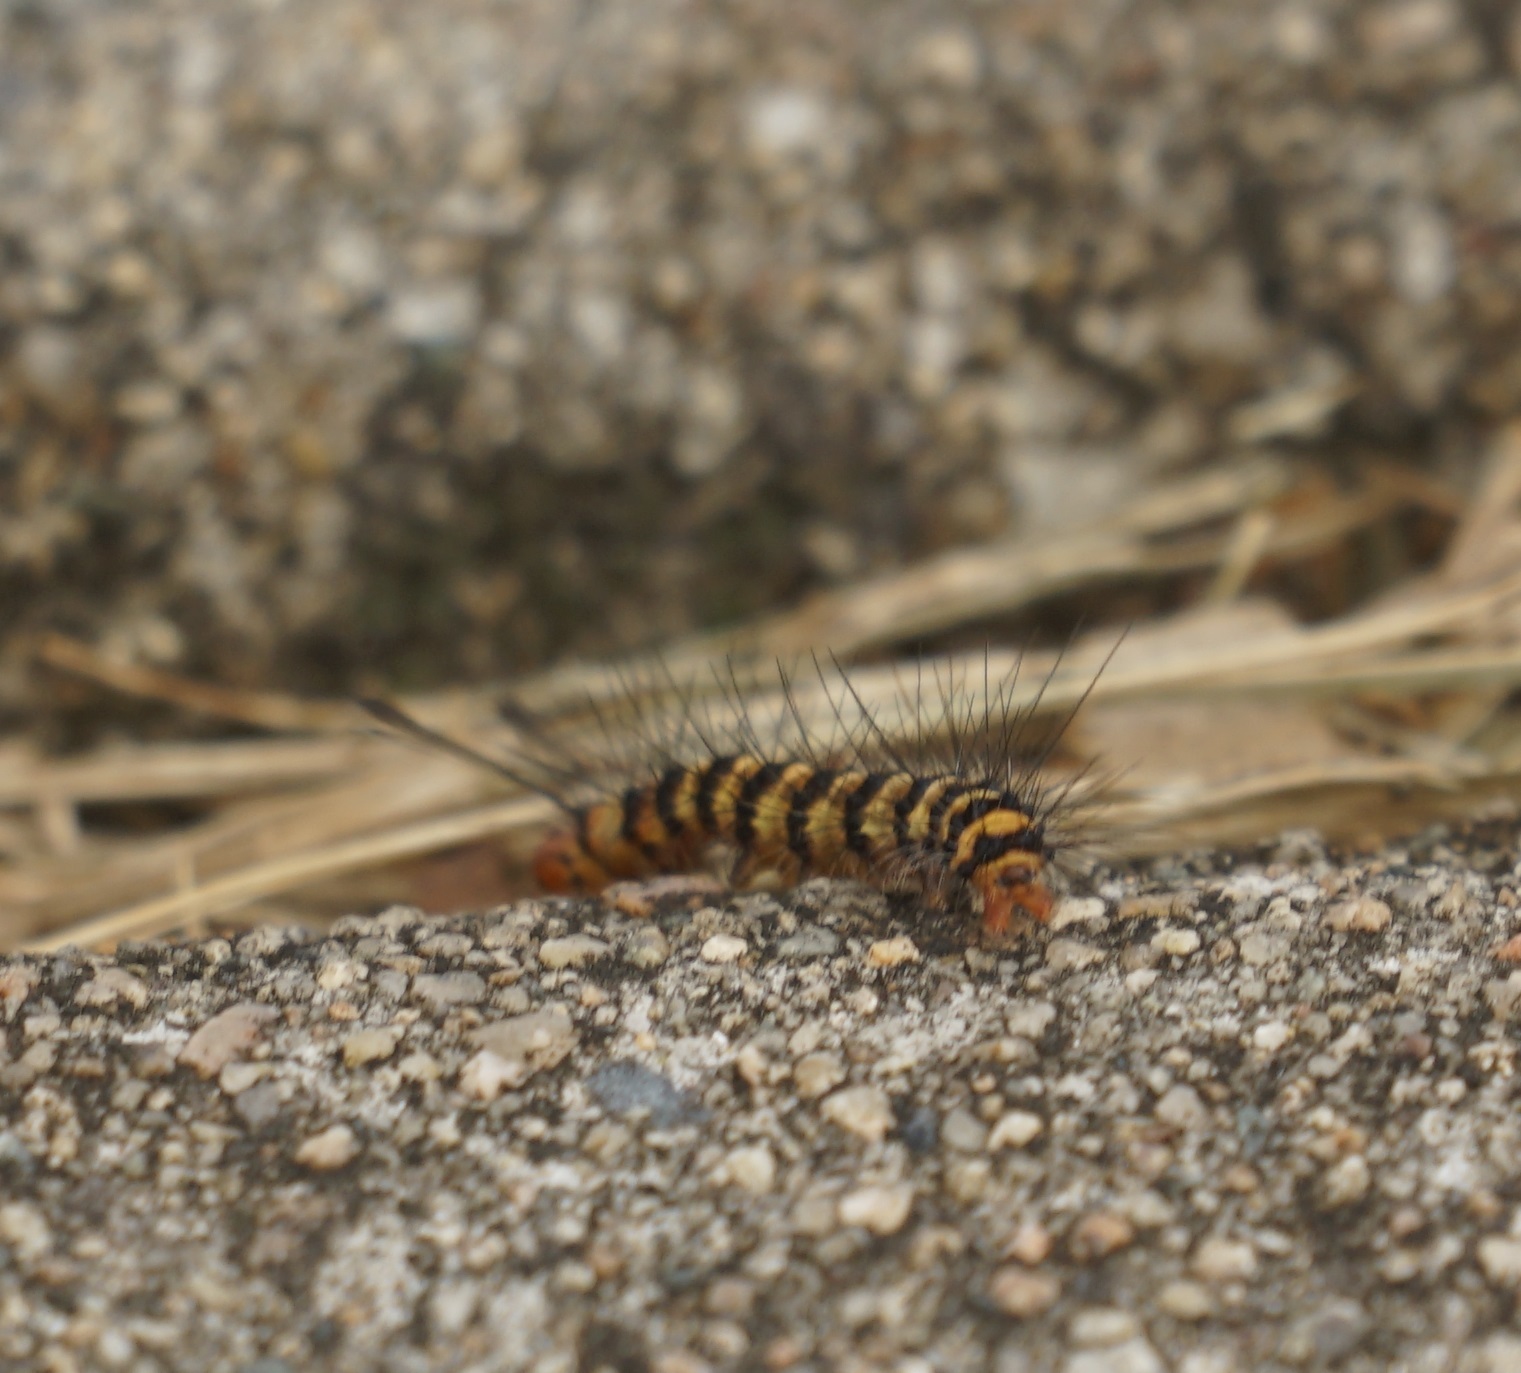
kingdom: Animalia
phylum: Arthropoda
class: Insecta
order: Lepidoptera
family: Erebidae
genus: Nyctemera
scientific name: Nyctemera baulus
